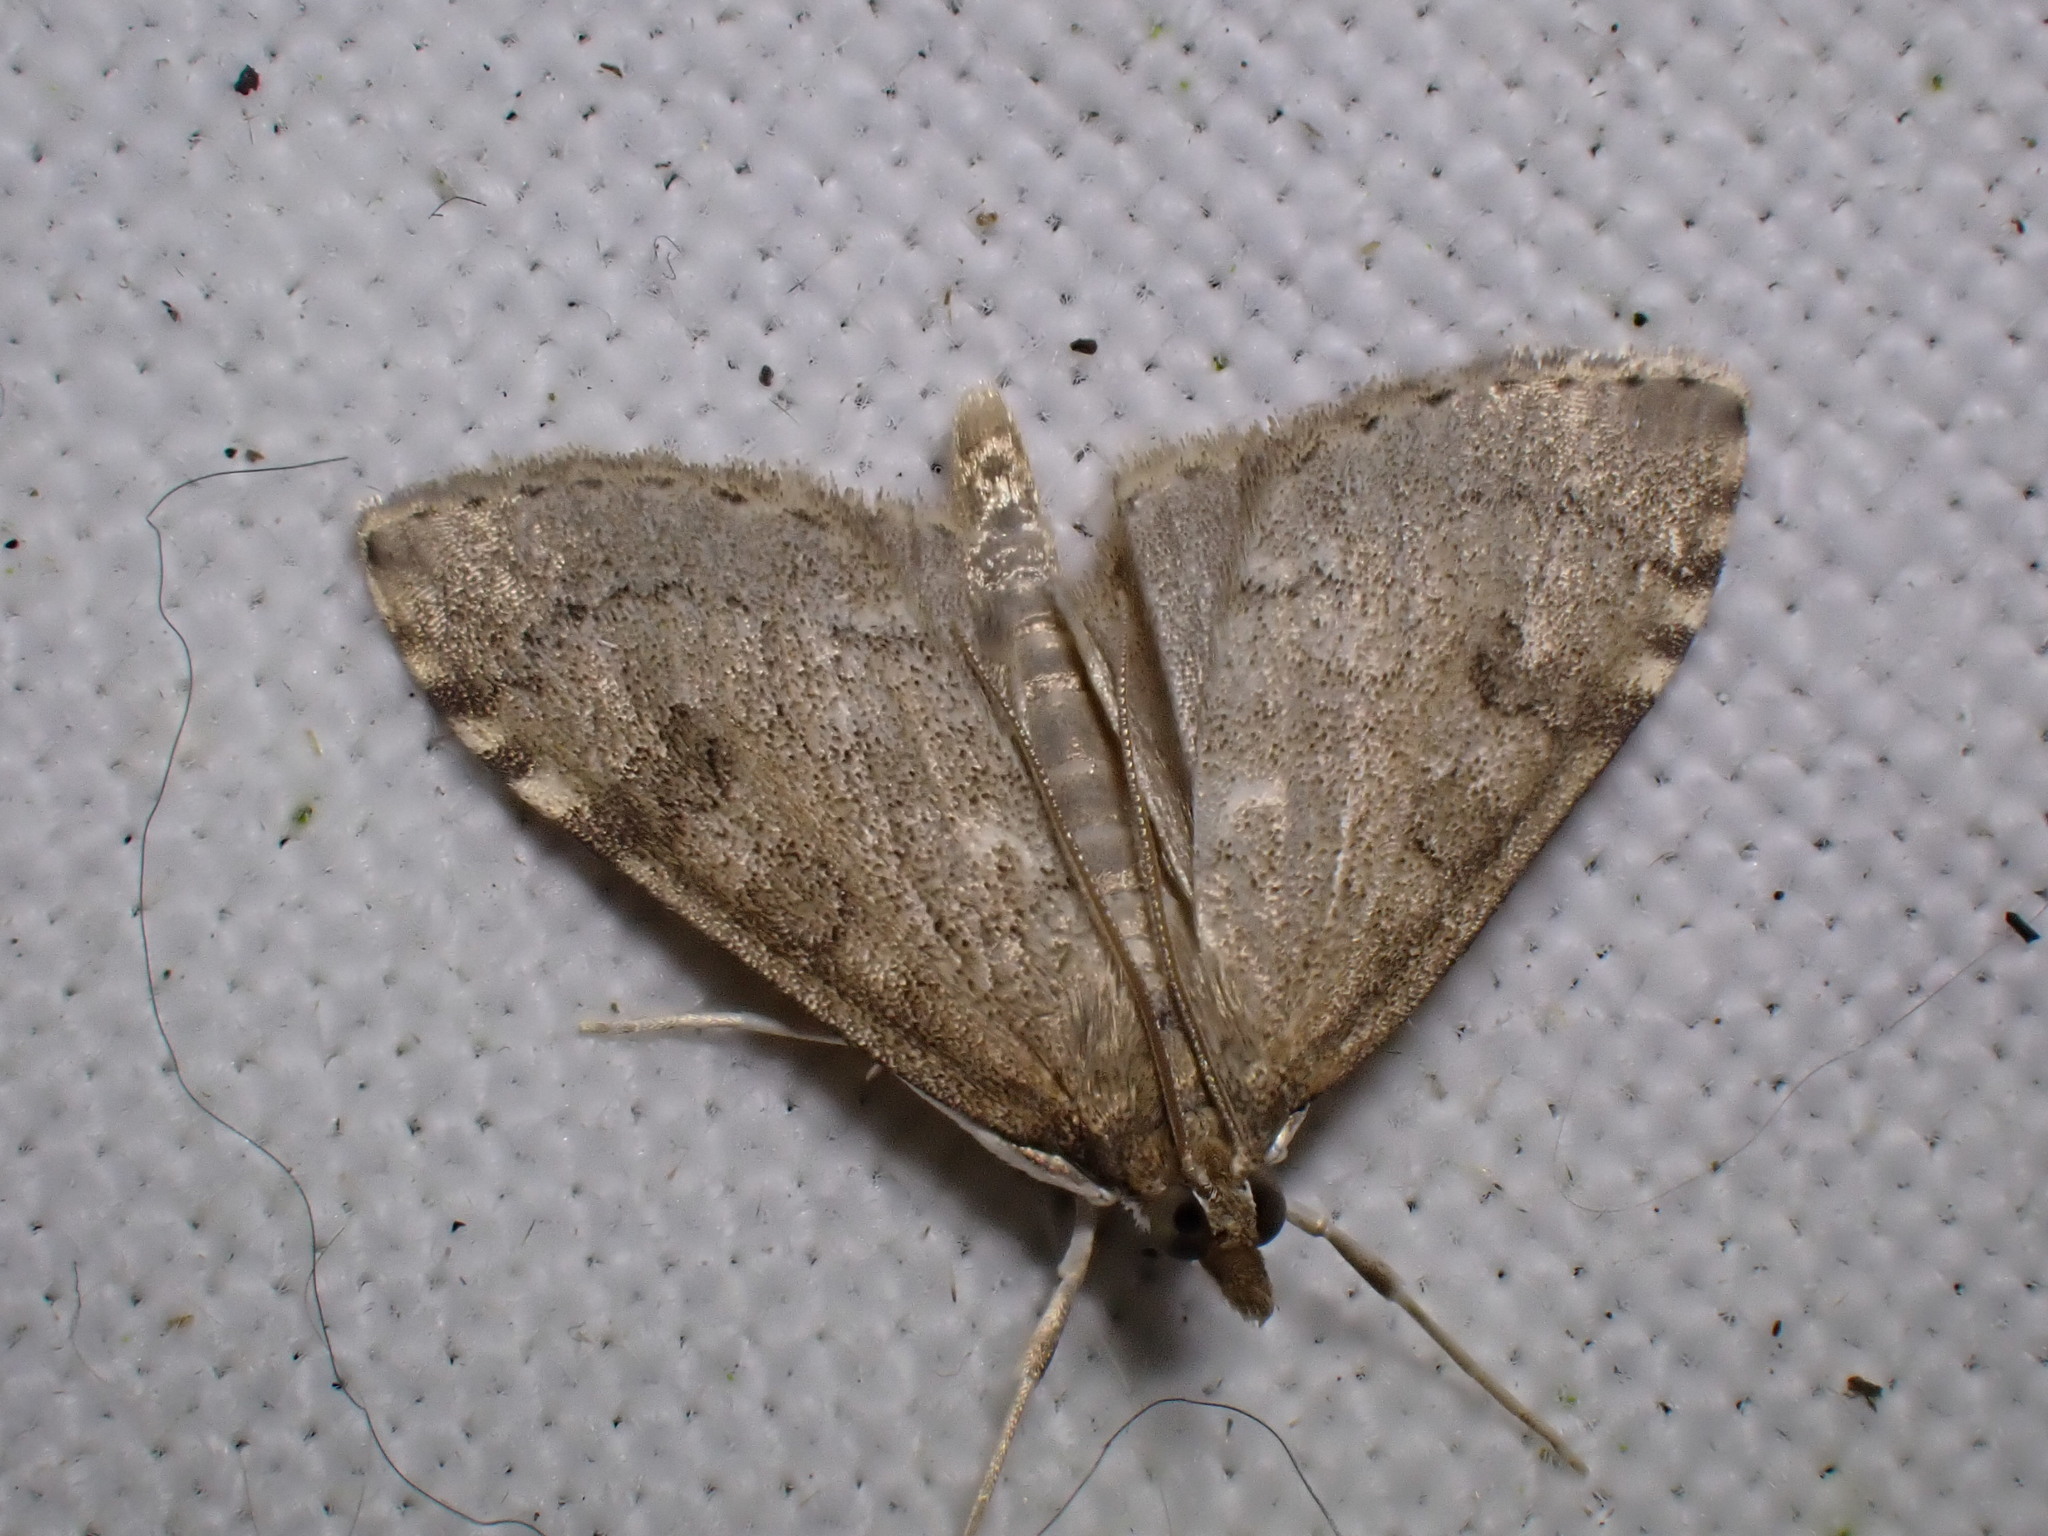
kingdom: Animalia
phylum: Arthropoda
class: Insecta
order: Lepidoptera
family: Crambidae
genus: Udea
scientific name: Udea prunalis
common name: Dusky pearl
